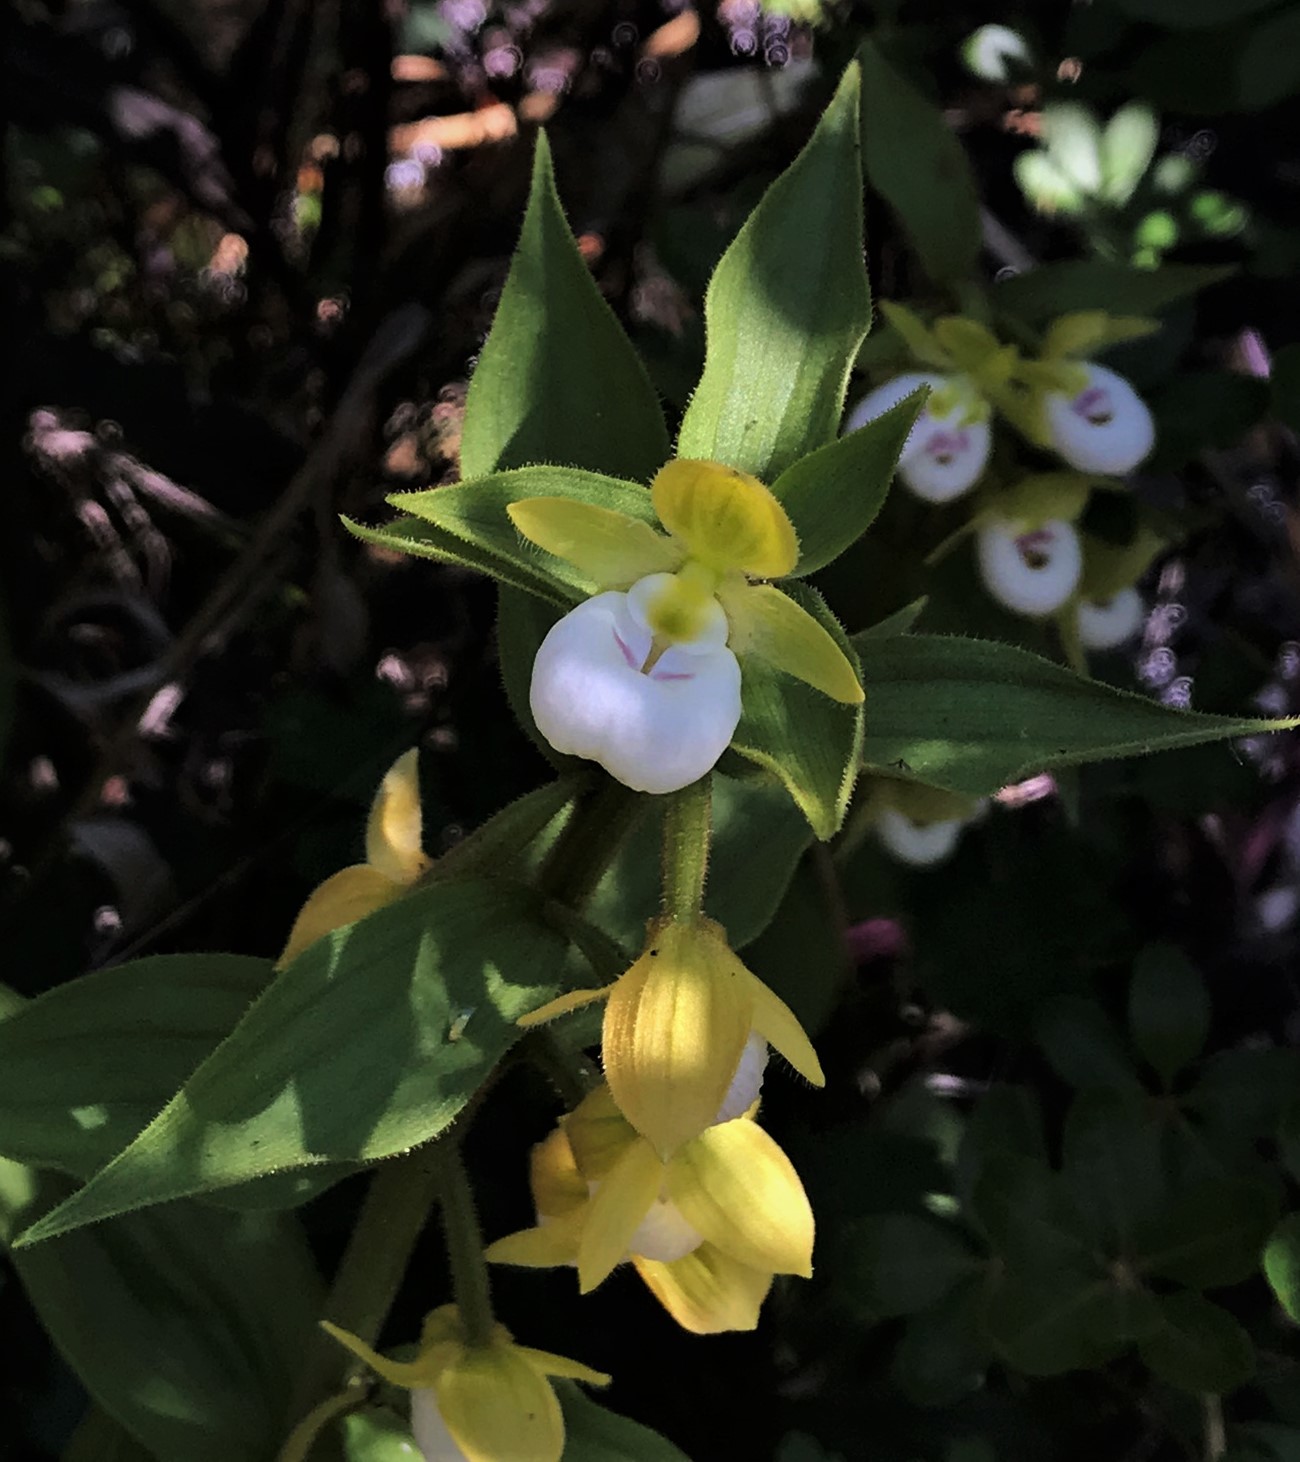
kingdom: Plantae
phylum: Tracheophyta
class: Liliopsida
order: Asparagales
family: Orchidaceae
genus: Cypripedium
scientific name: Cypripedium californicum
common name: California lady's slipper
